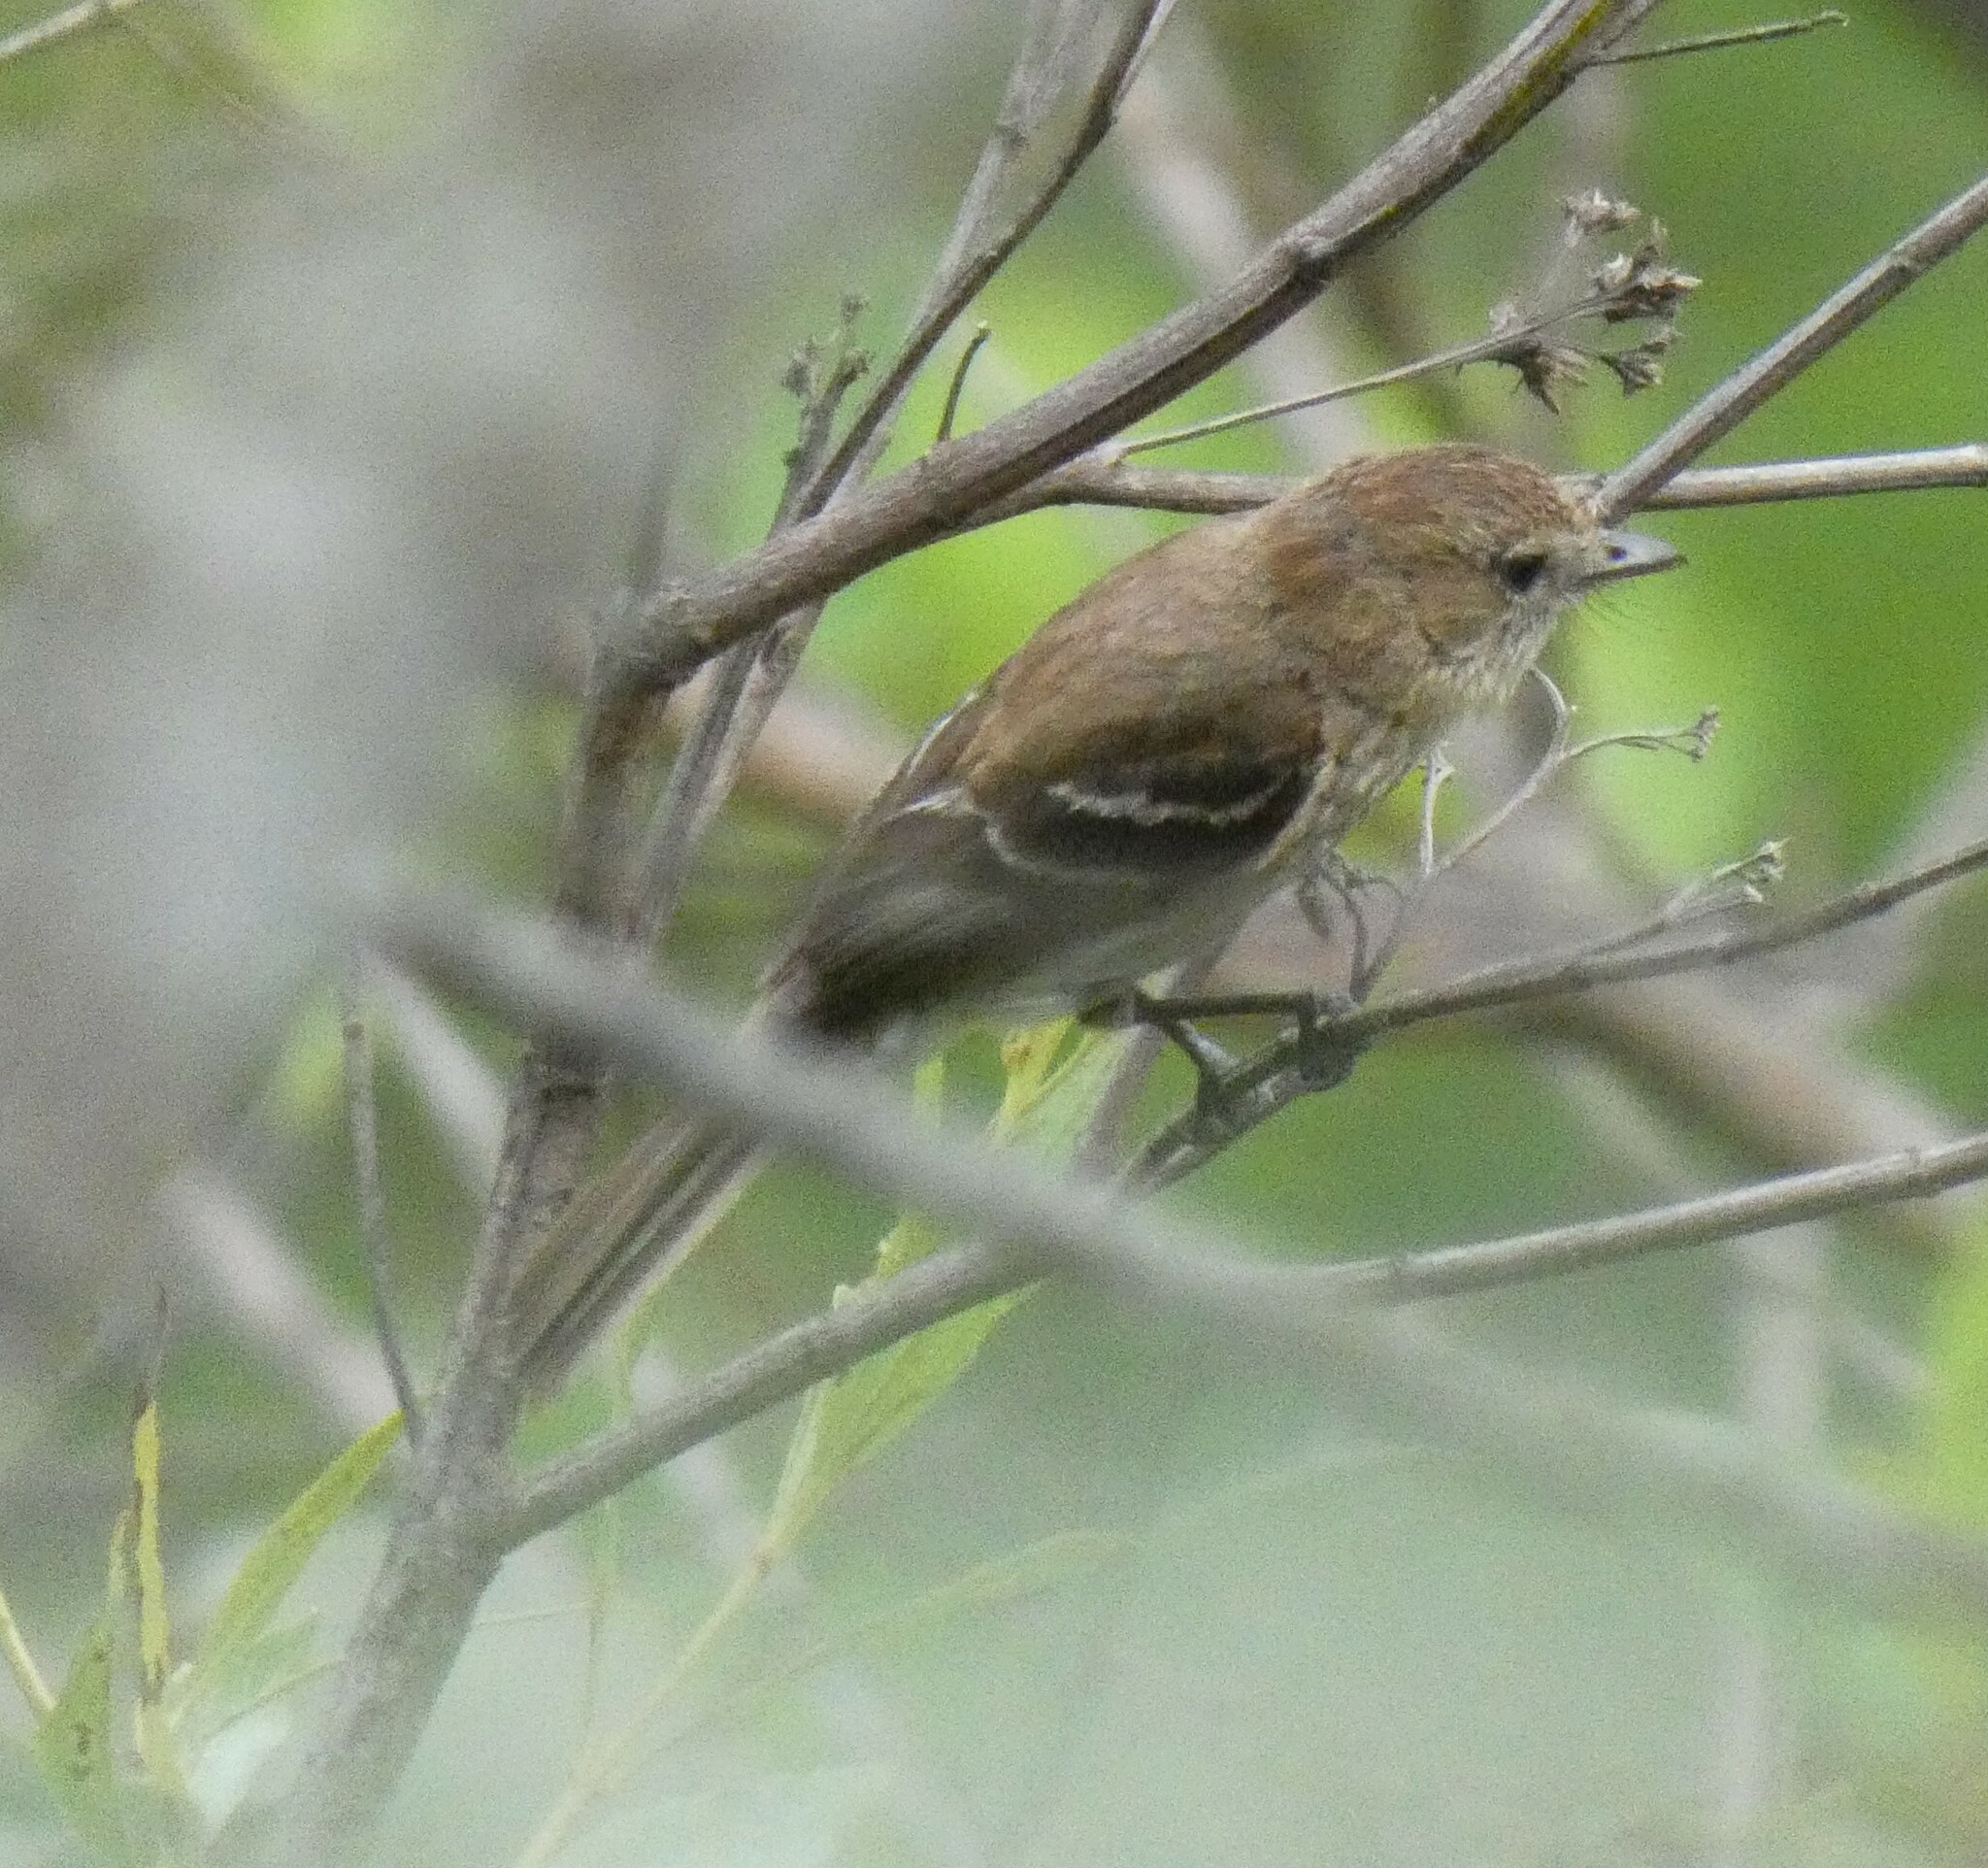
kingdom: Animalia
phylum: Chordata
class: Aves
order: Passeriformes
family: Tyrannidae
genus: Myiophobus
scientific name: Myiophobus fasciatus
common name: Bran-colored flycatcher
